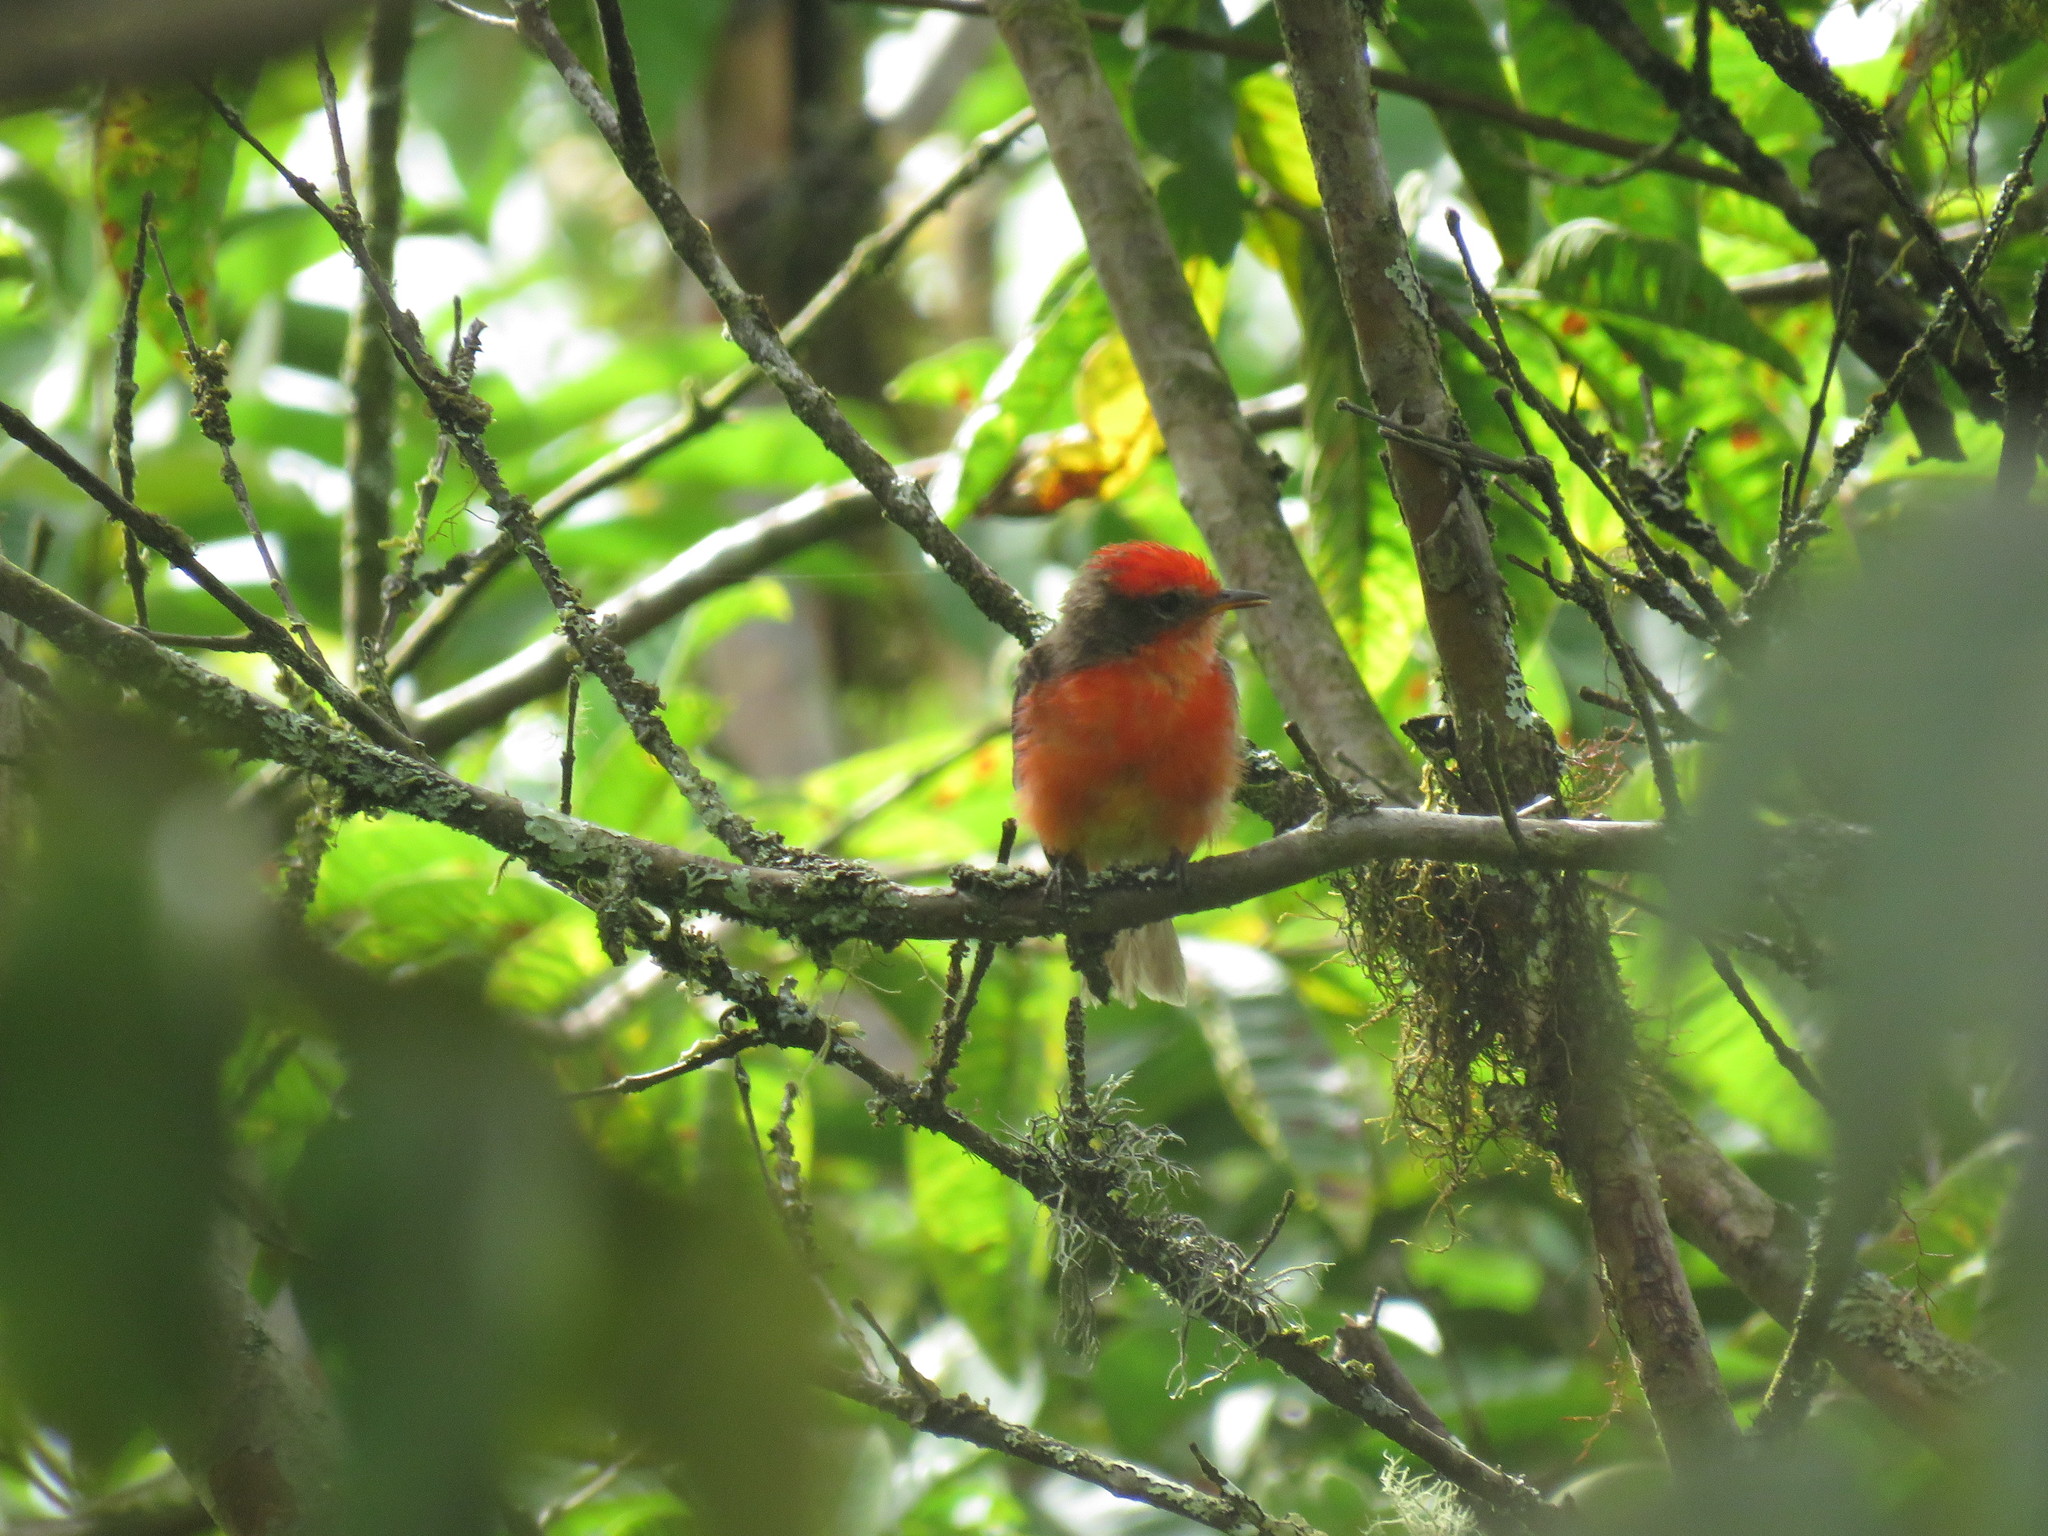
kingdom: Animalia
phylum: Chordata
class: Aves
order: Passeriformes
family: Tyrannidae
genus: Pyrocephalus
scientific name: Pyrocephalus rubinus
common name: Vermilion flycatcher
